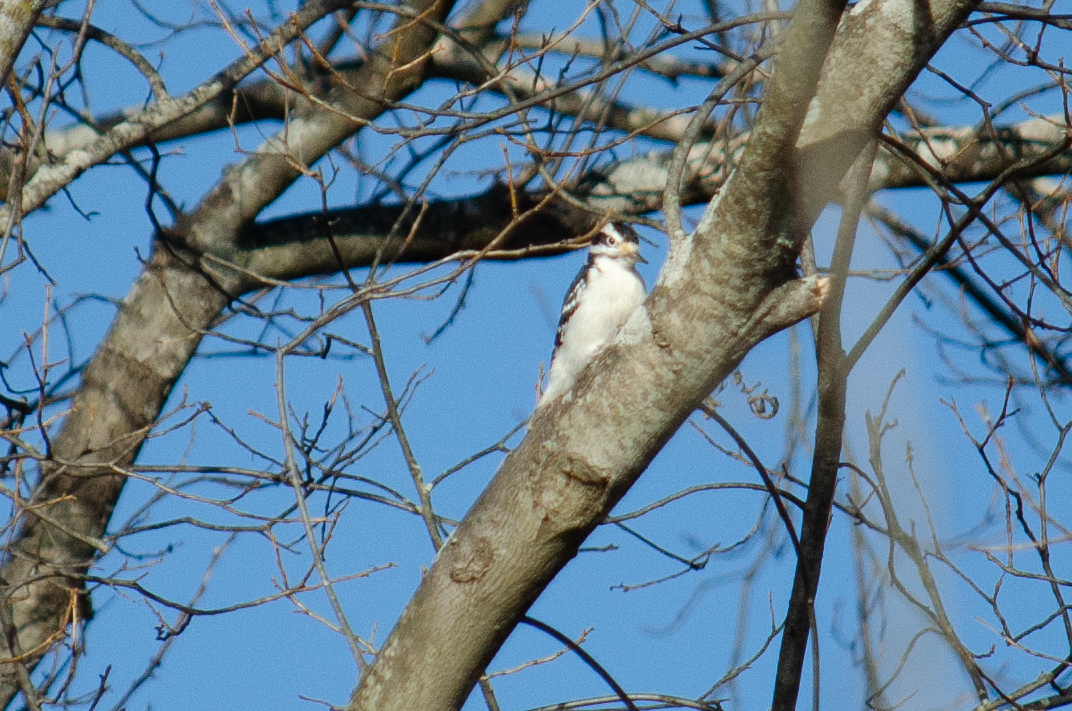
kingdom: Animalia
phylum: Chordata
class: Aves
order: Piciformes
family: Picidae
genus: Leuconotopicus
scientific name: Leuconotopicus villosus
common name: Hairy woodpecker
